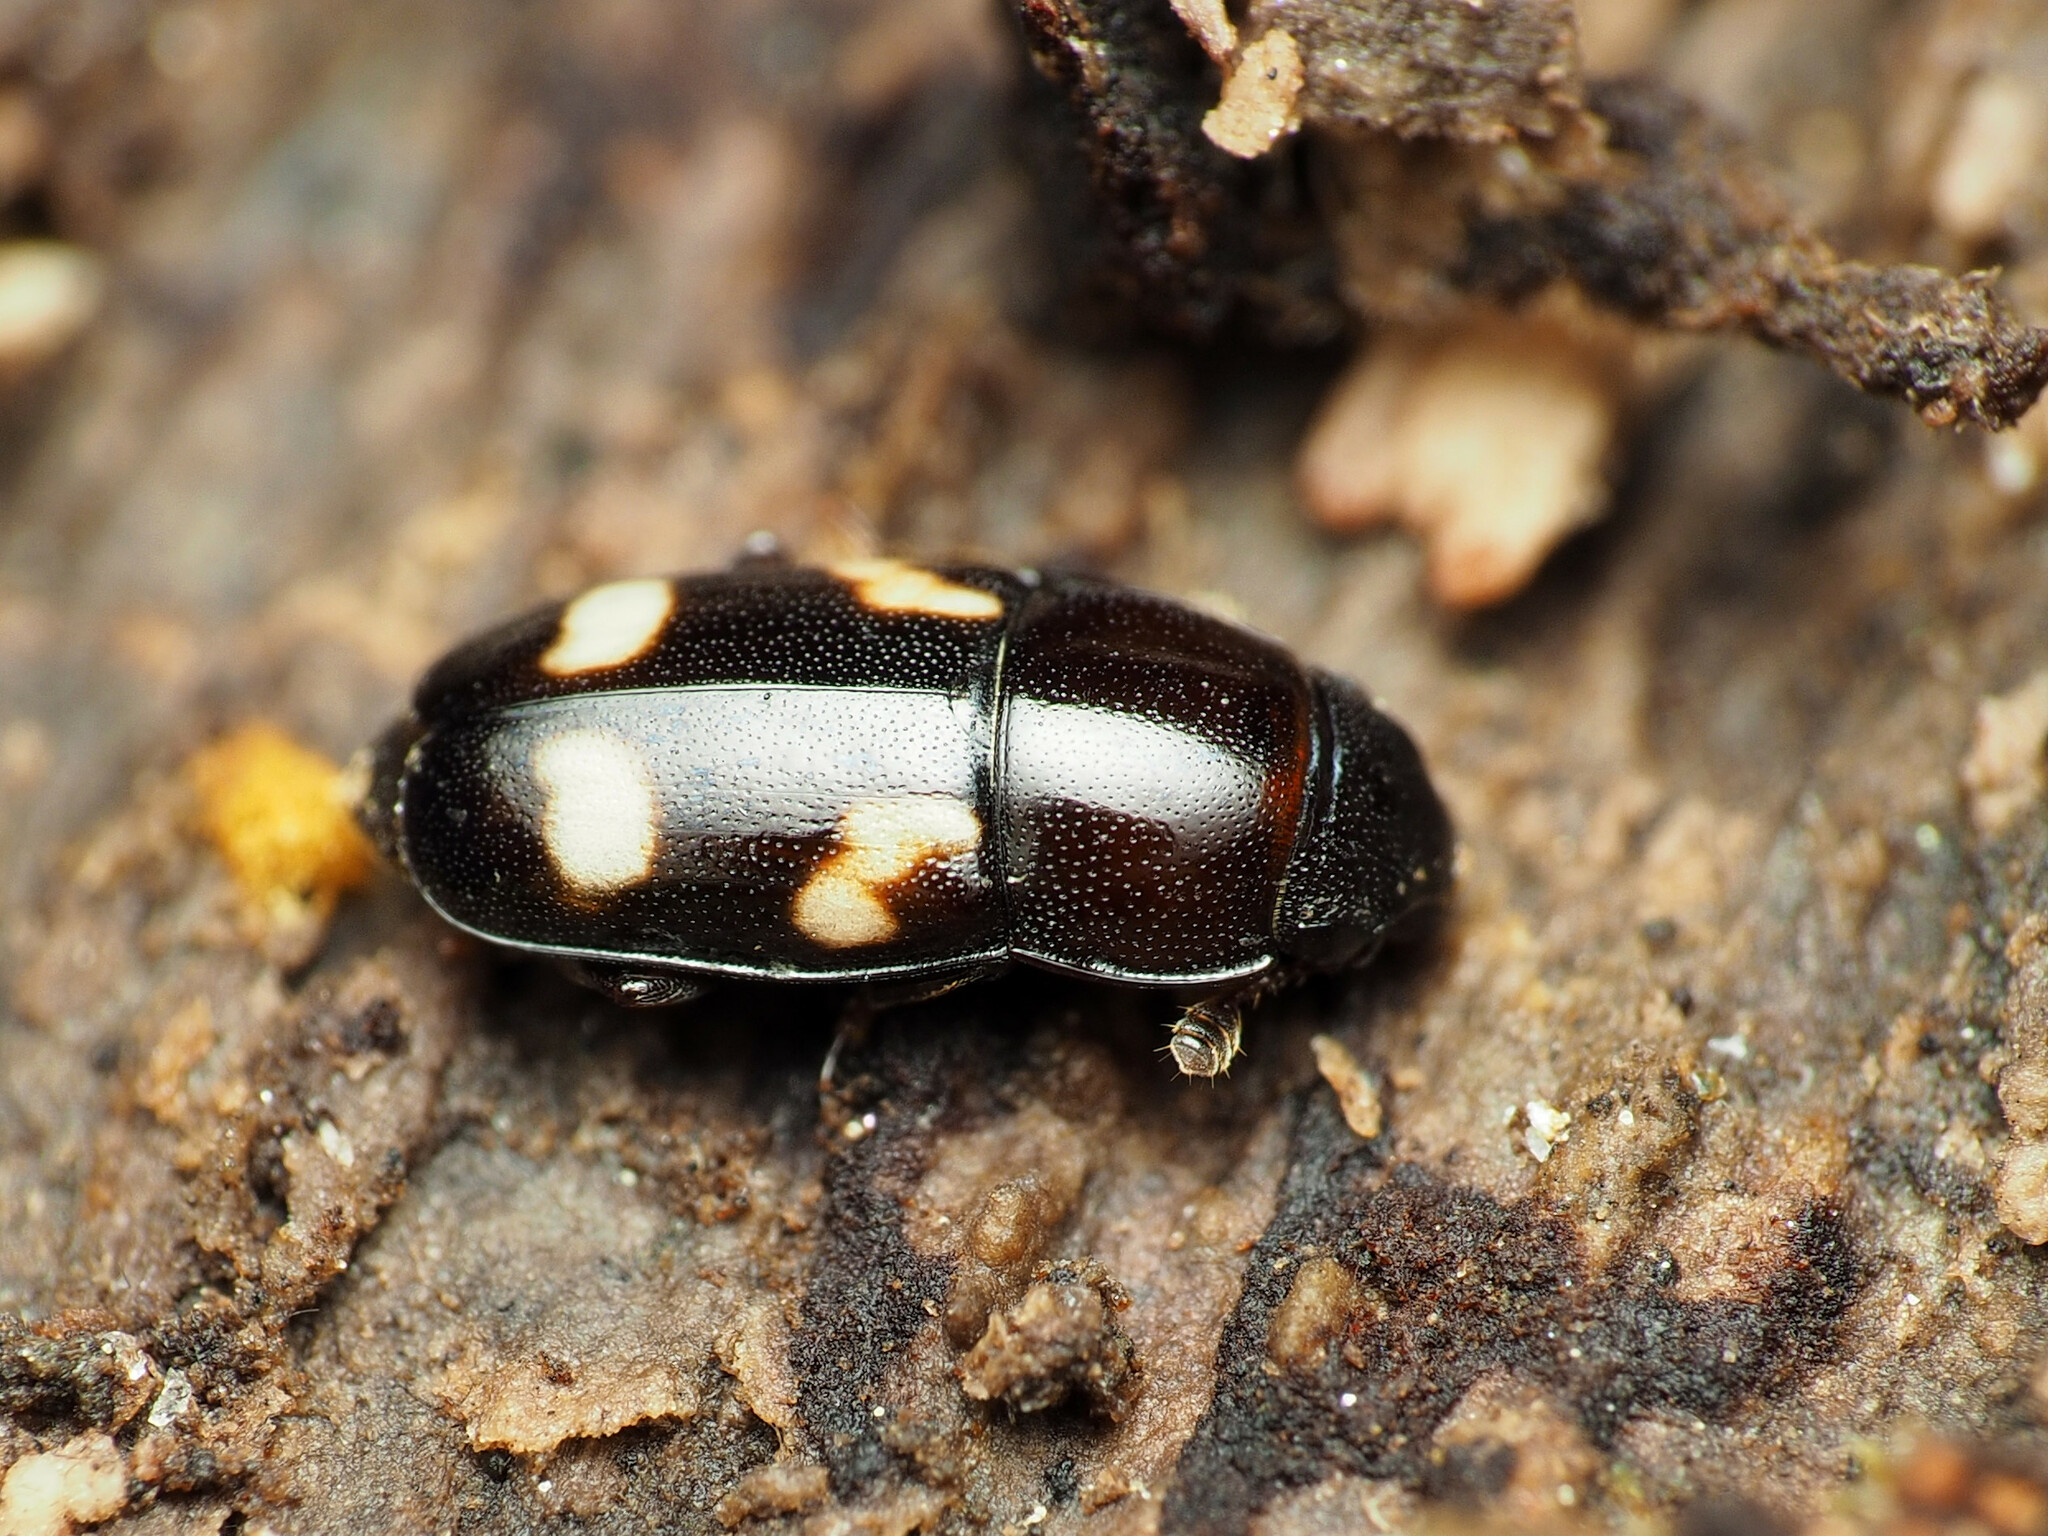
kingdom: Animalia
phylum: Arthropoda
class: Insecta
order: Coleoptera
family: Nitidulidae
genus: Glischrochilus
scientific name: Glischrochilus quadrisignatus
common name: Picnic beetle
